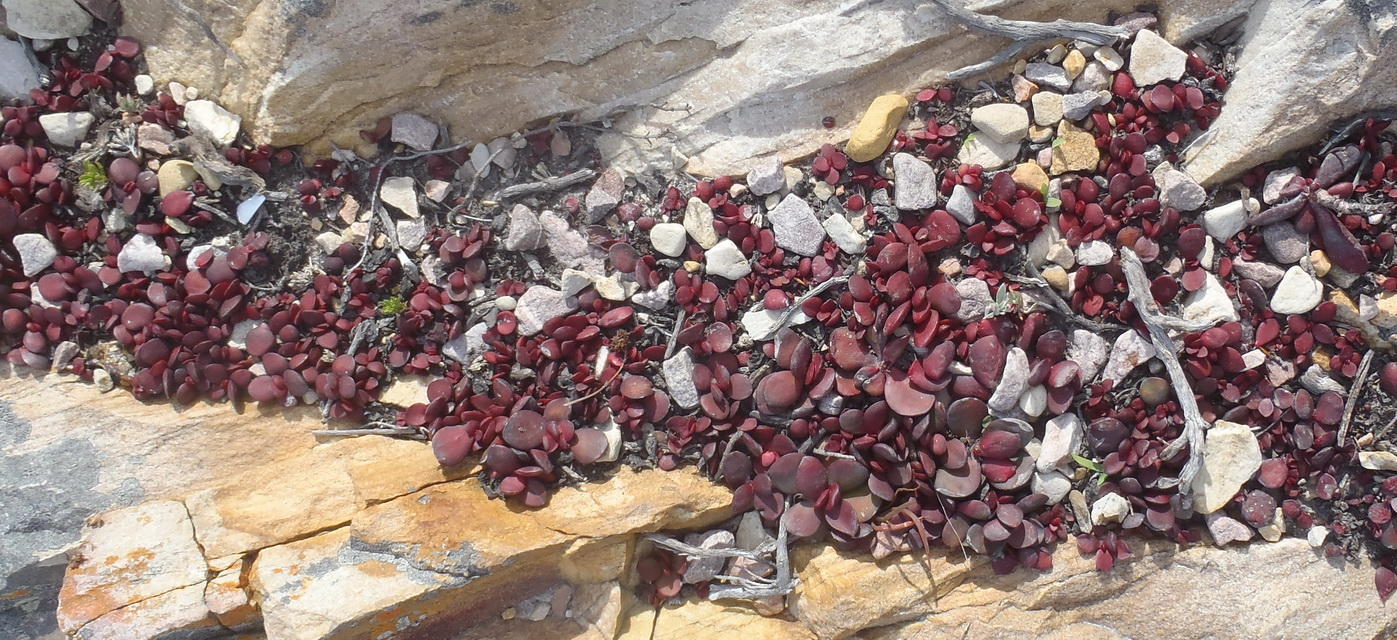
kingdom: Plantae
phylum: Tracheophyta
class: Magnoliopsida
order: Saxifragales
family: Crassulaceae
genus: Crassula
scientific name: Crassula atropurpurea
